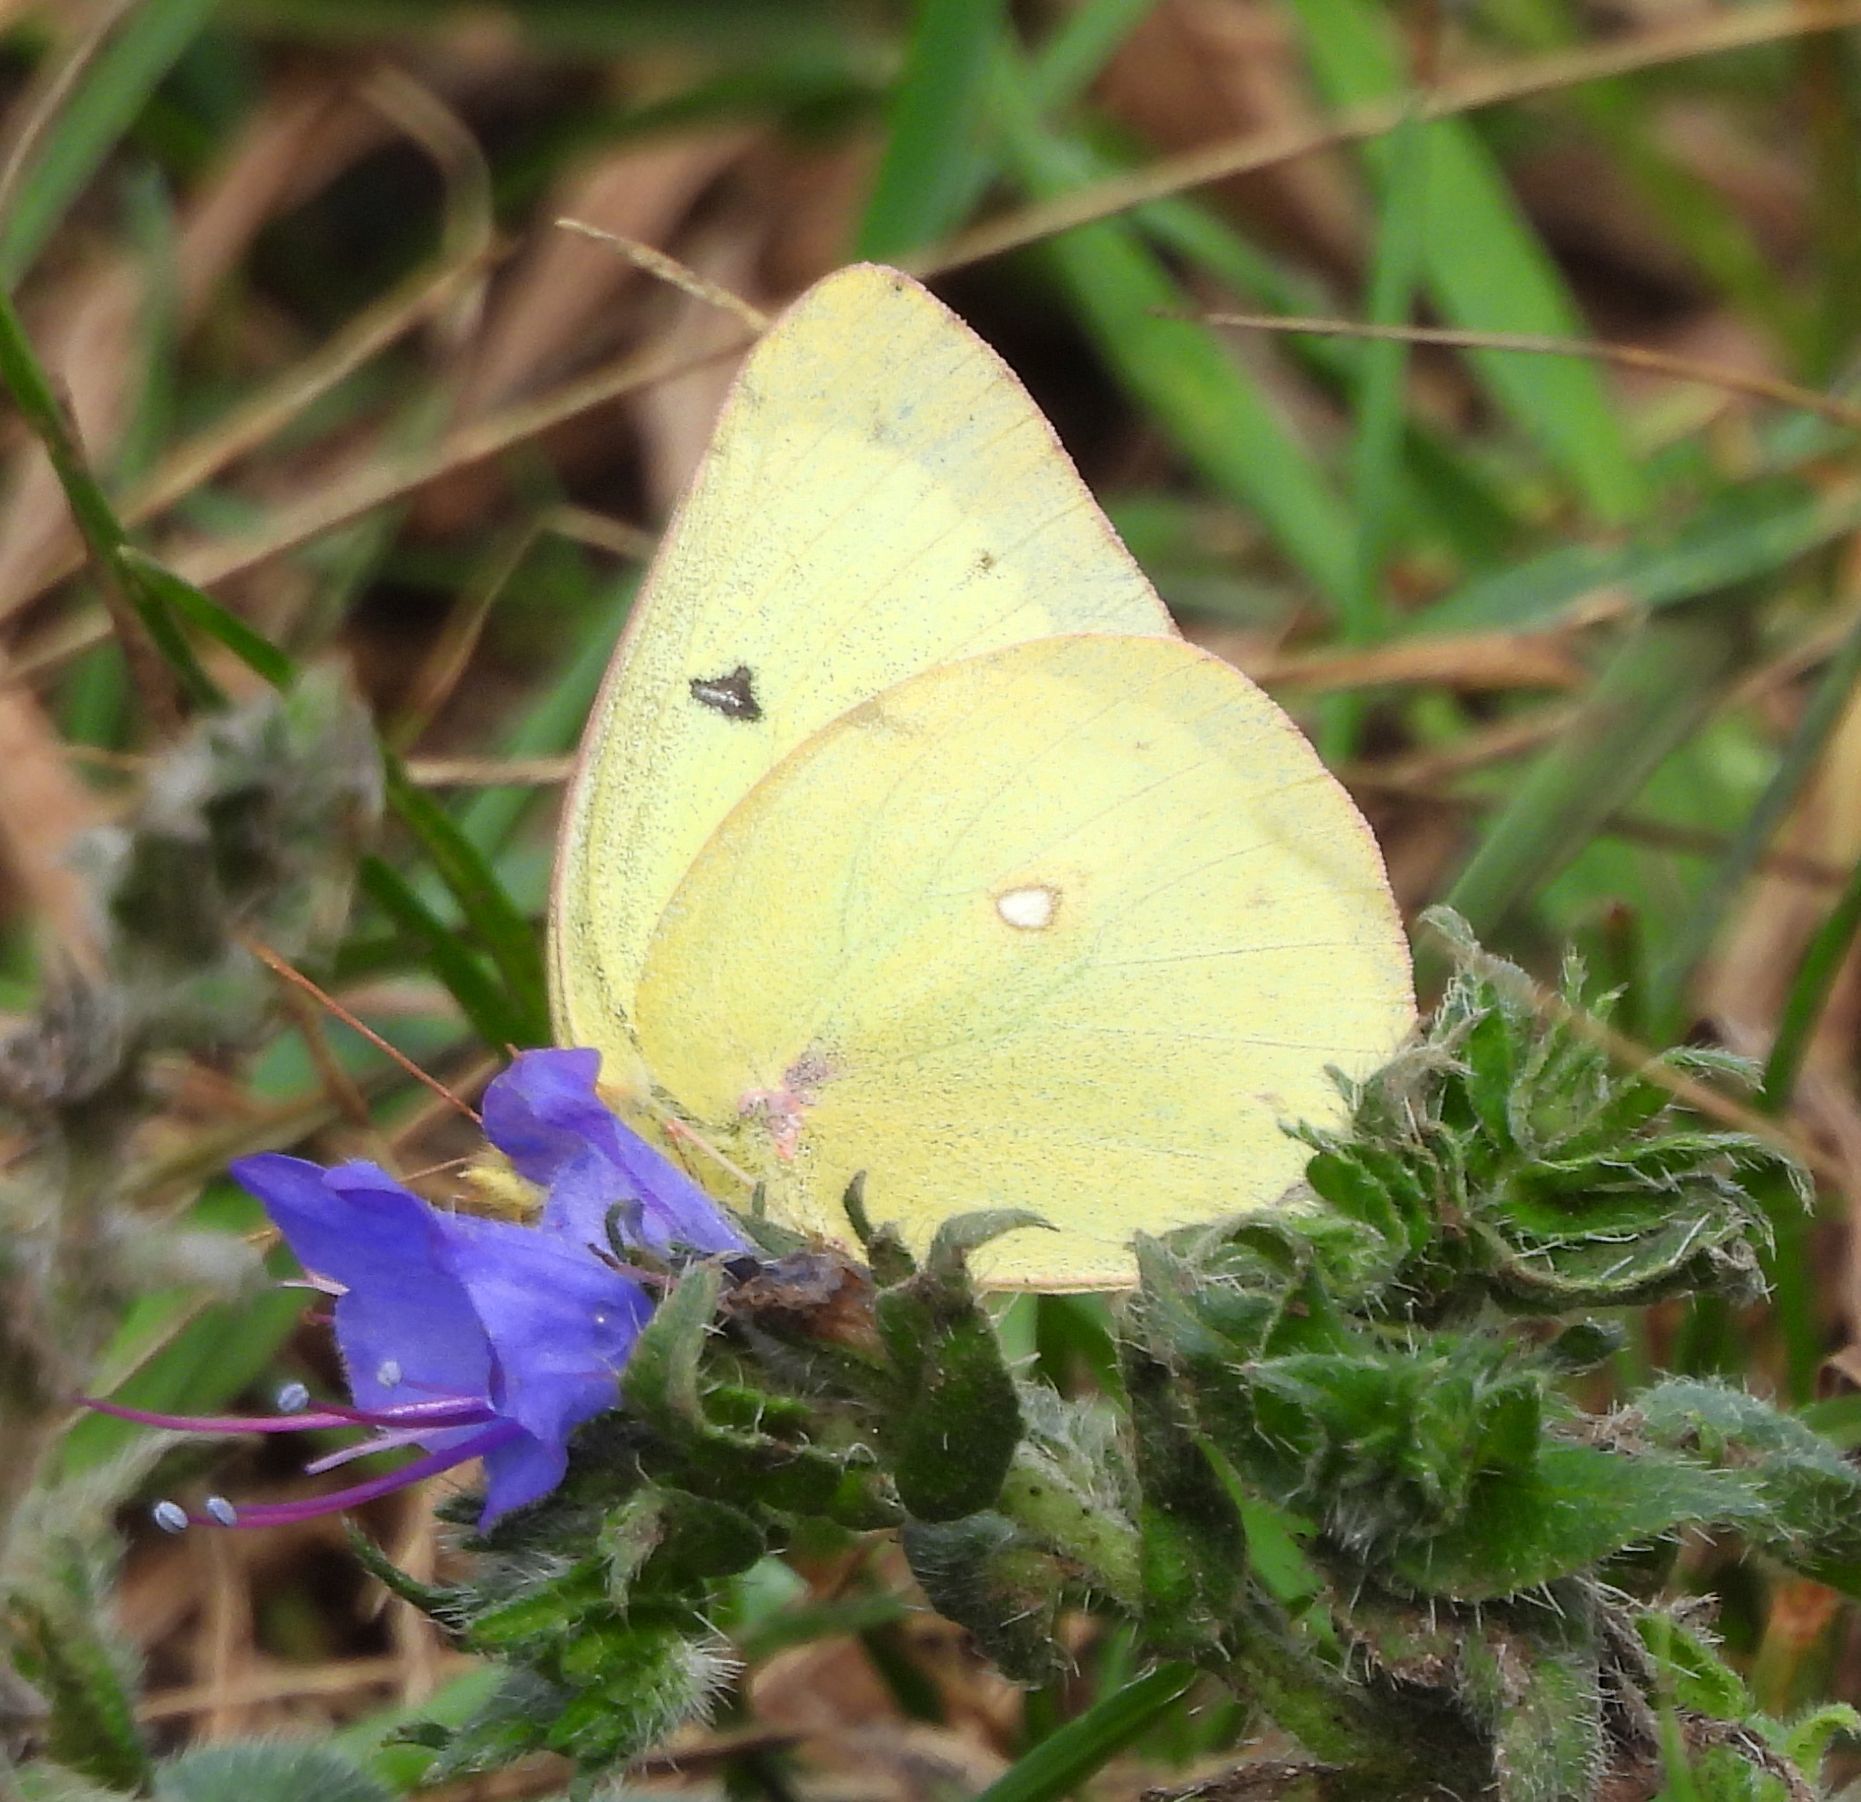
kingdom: Animalia
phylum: Arthropoda
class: Insecta
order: Lepidoptera
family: Pieridae
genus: Colias
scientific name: Colias philodice
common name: Clouded sulphur
